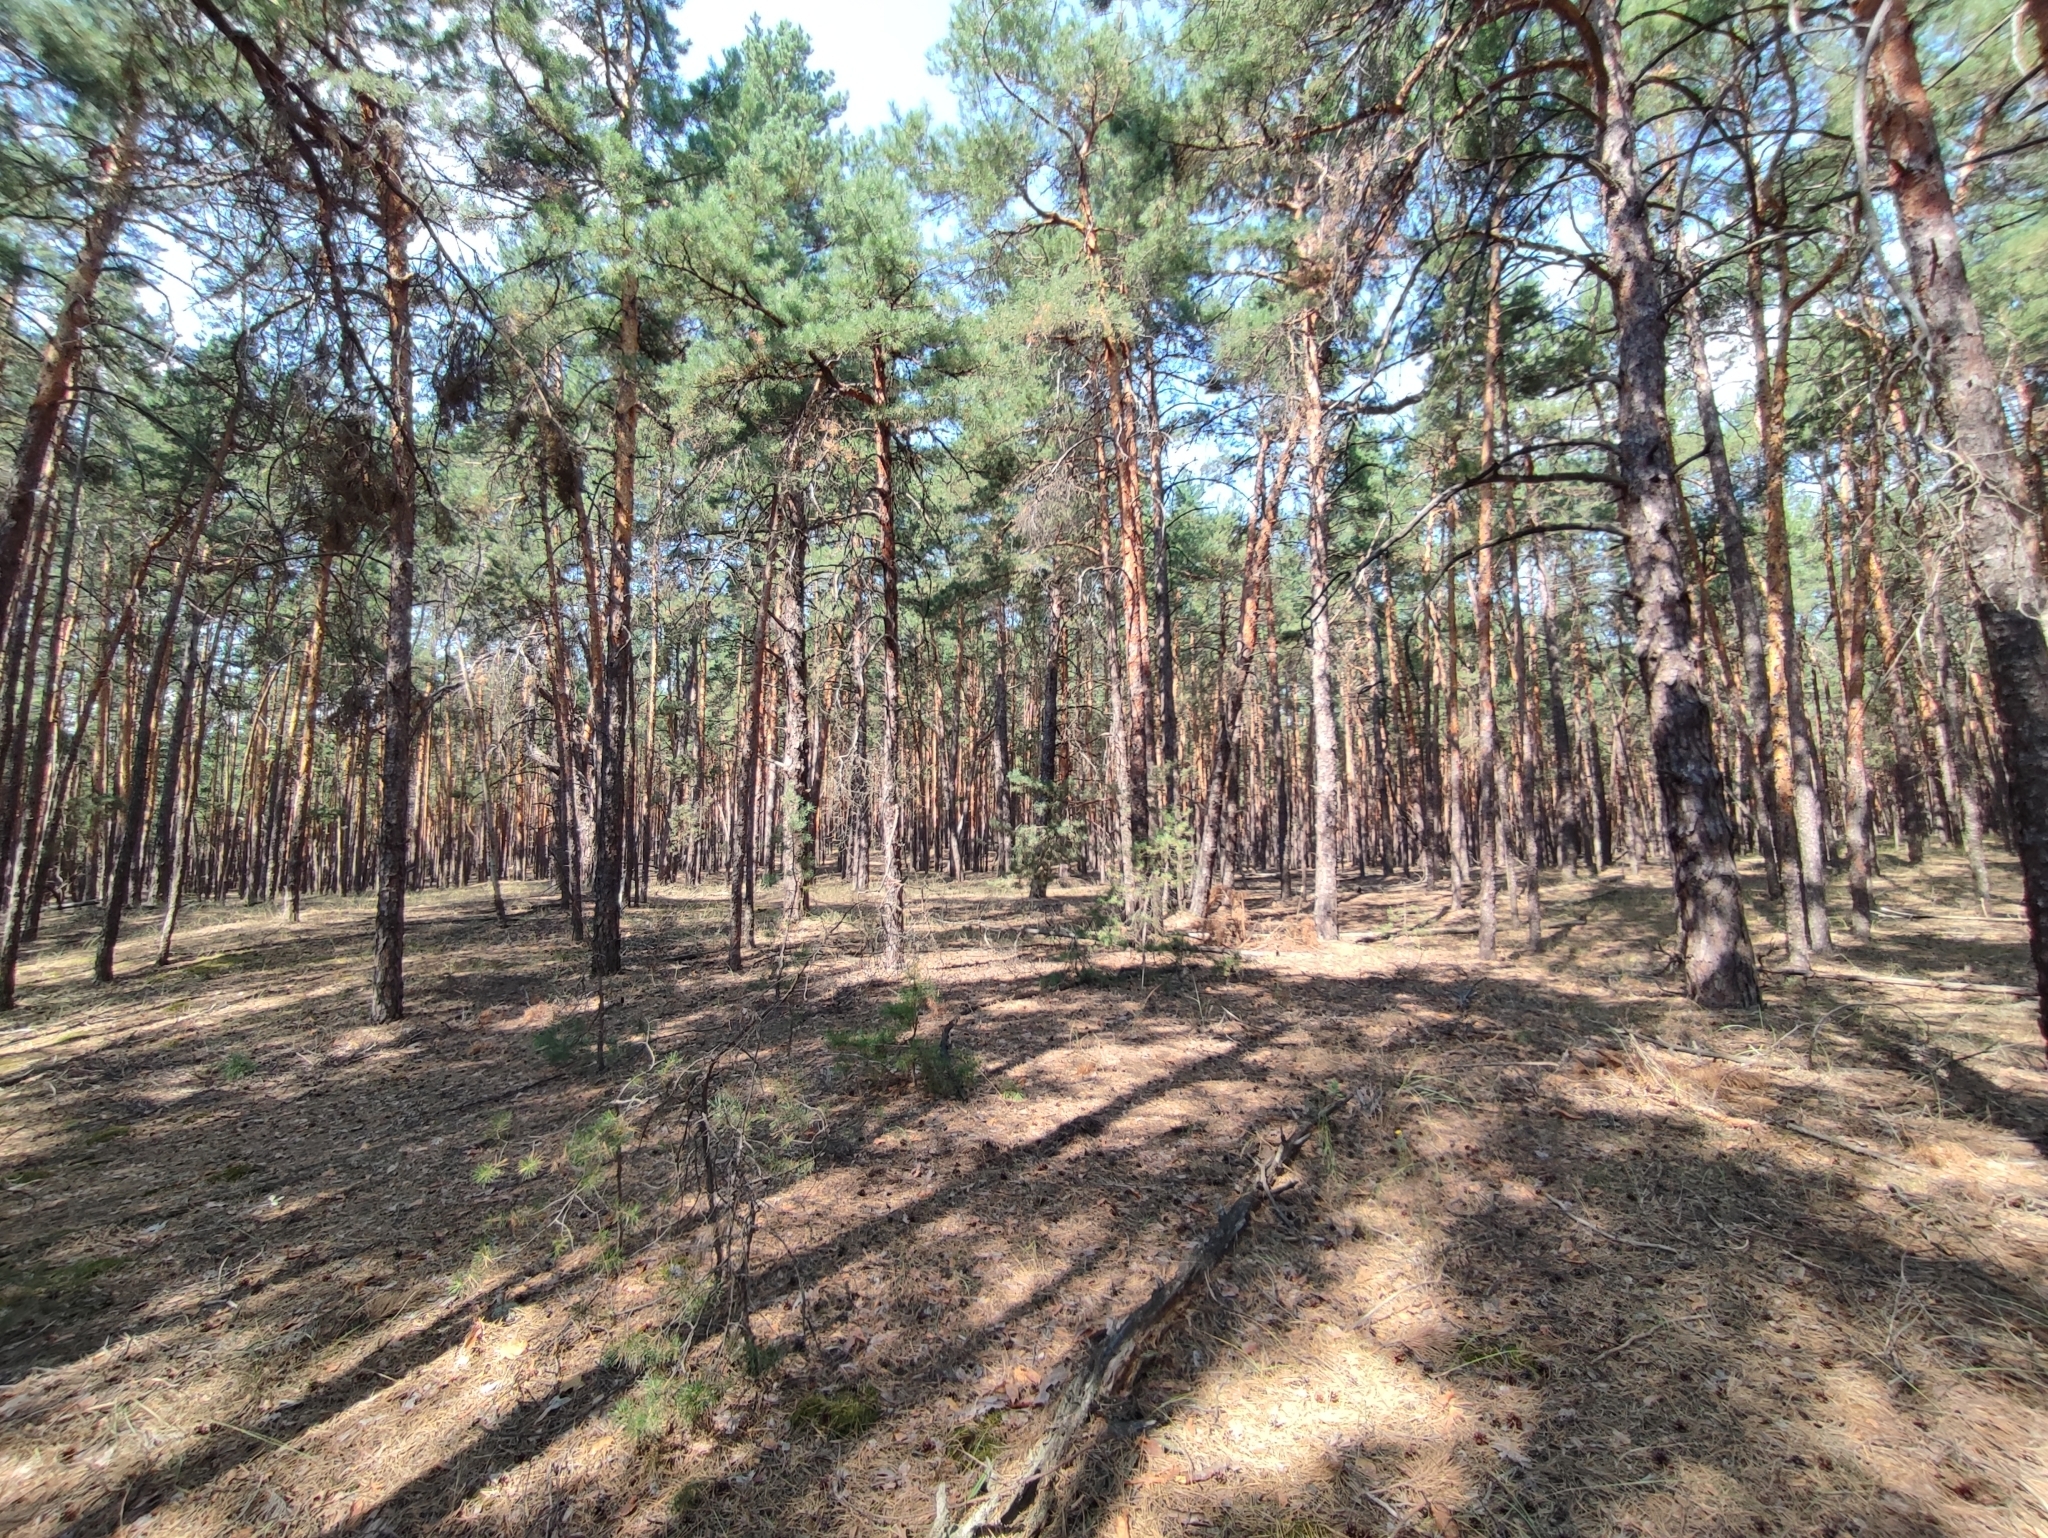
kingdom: Plantae
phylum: Tracheophyta
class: Pinopsida
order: Pinales
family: Pinaceae
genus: Pinus
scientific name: Pinus sylvestris
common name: Scots pine
